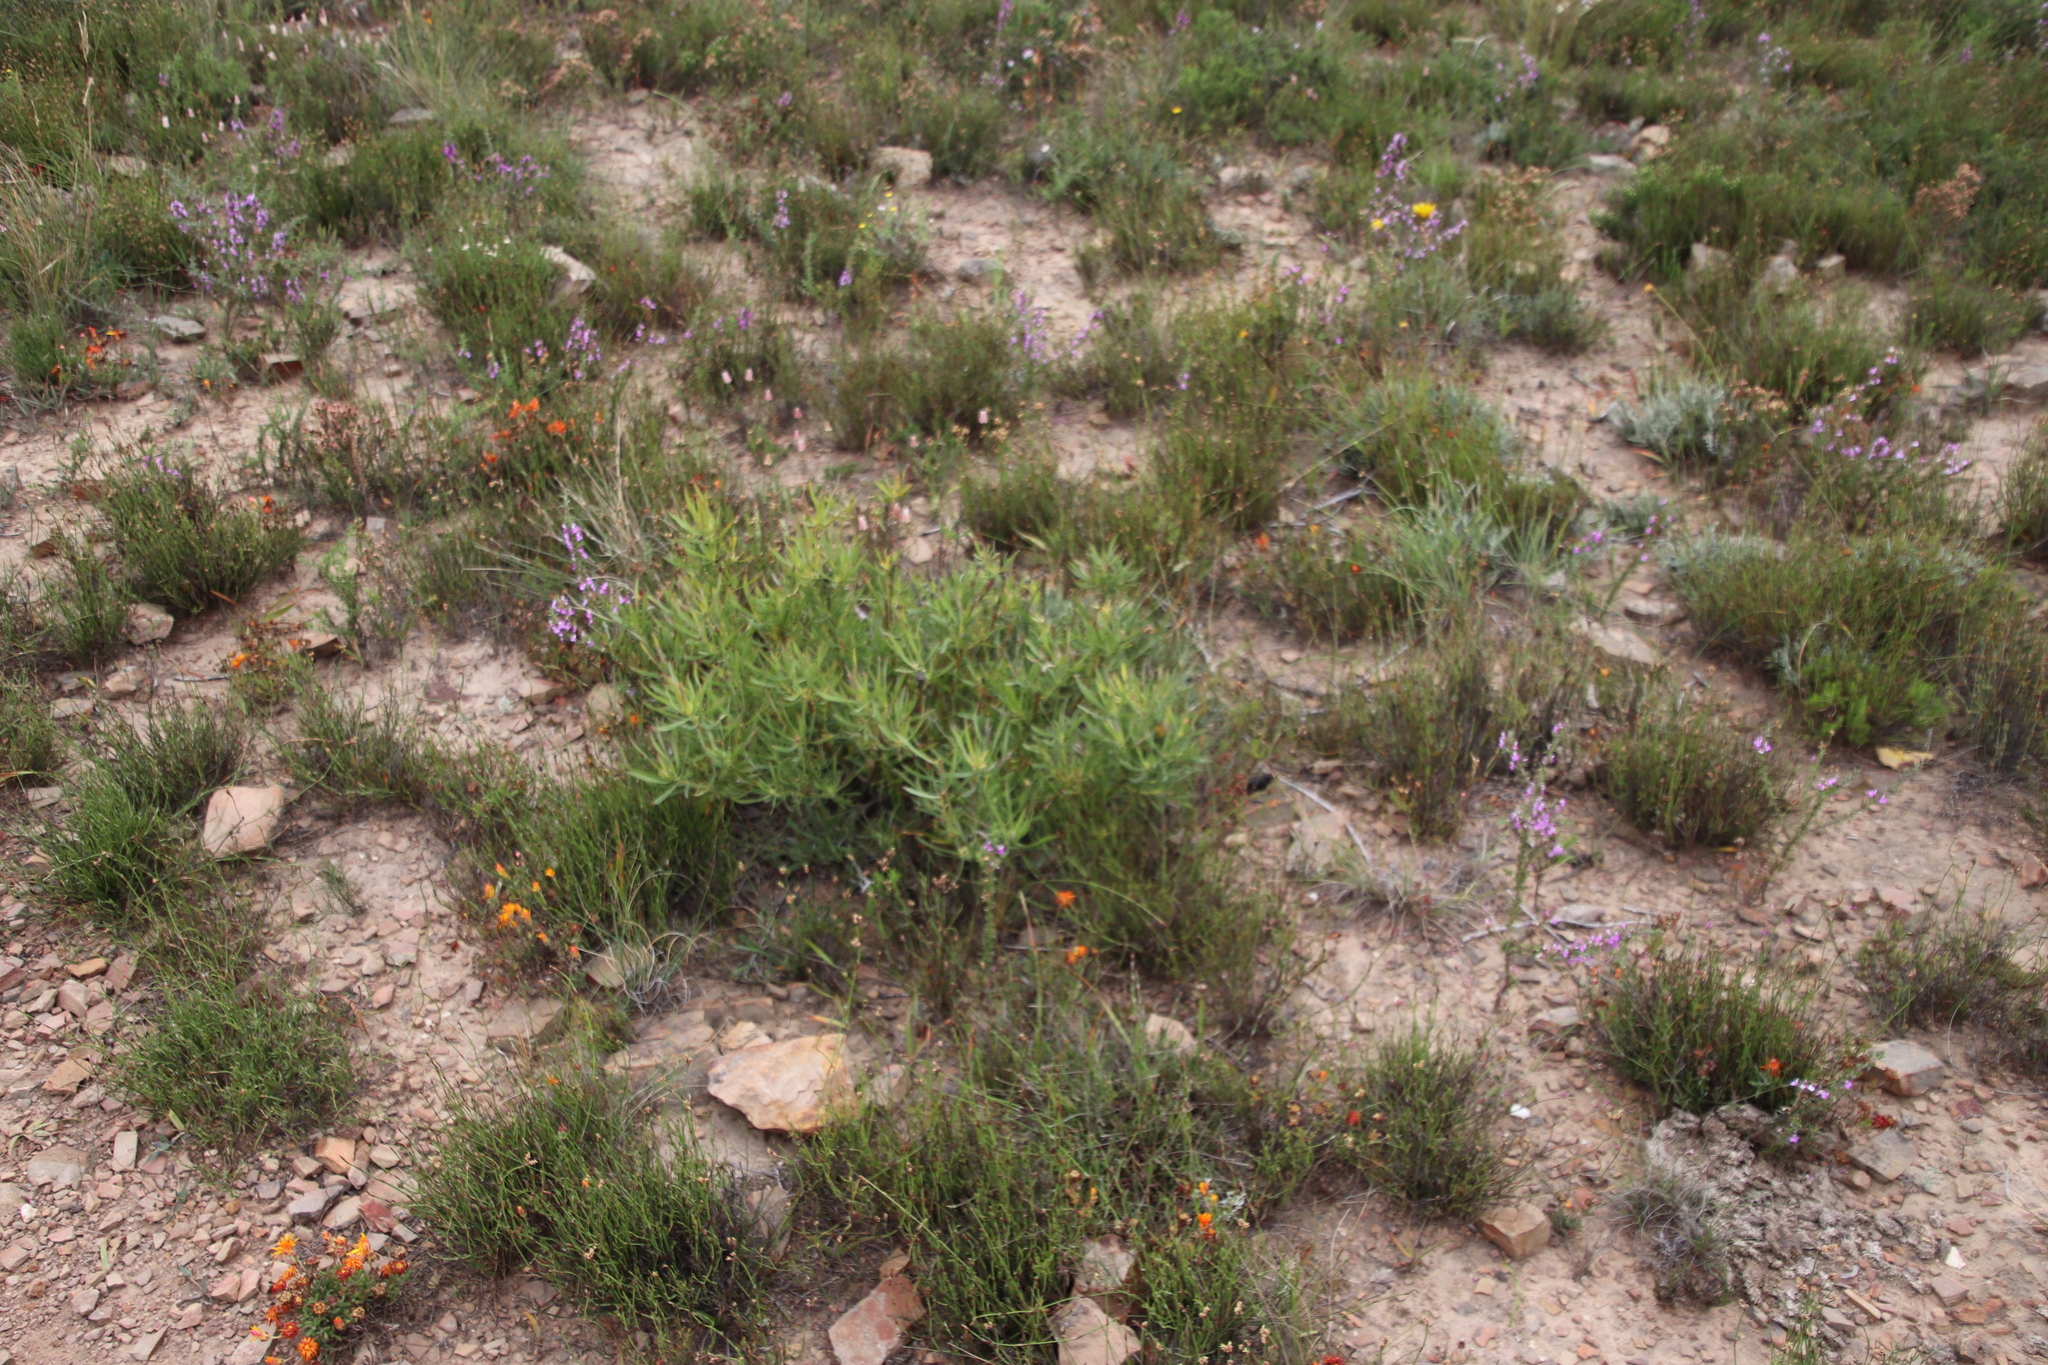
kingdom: Plantae
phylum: Tracheophyta
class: Magnoliopsida
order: Proteales
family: Proteaceae
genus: Leucadendron
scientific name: Leucadendron salignum
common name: Common sunshine conebush
